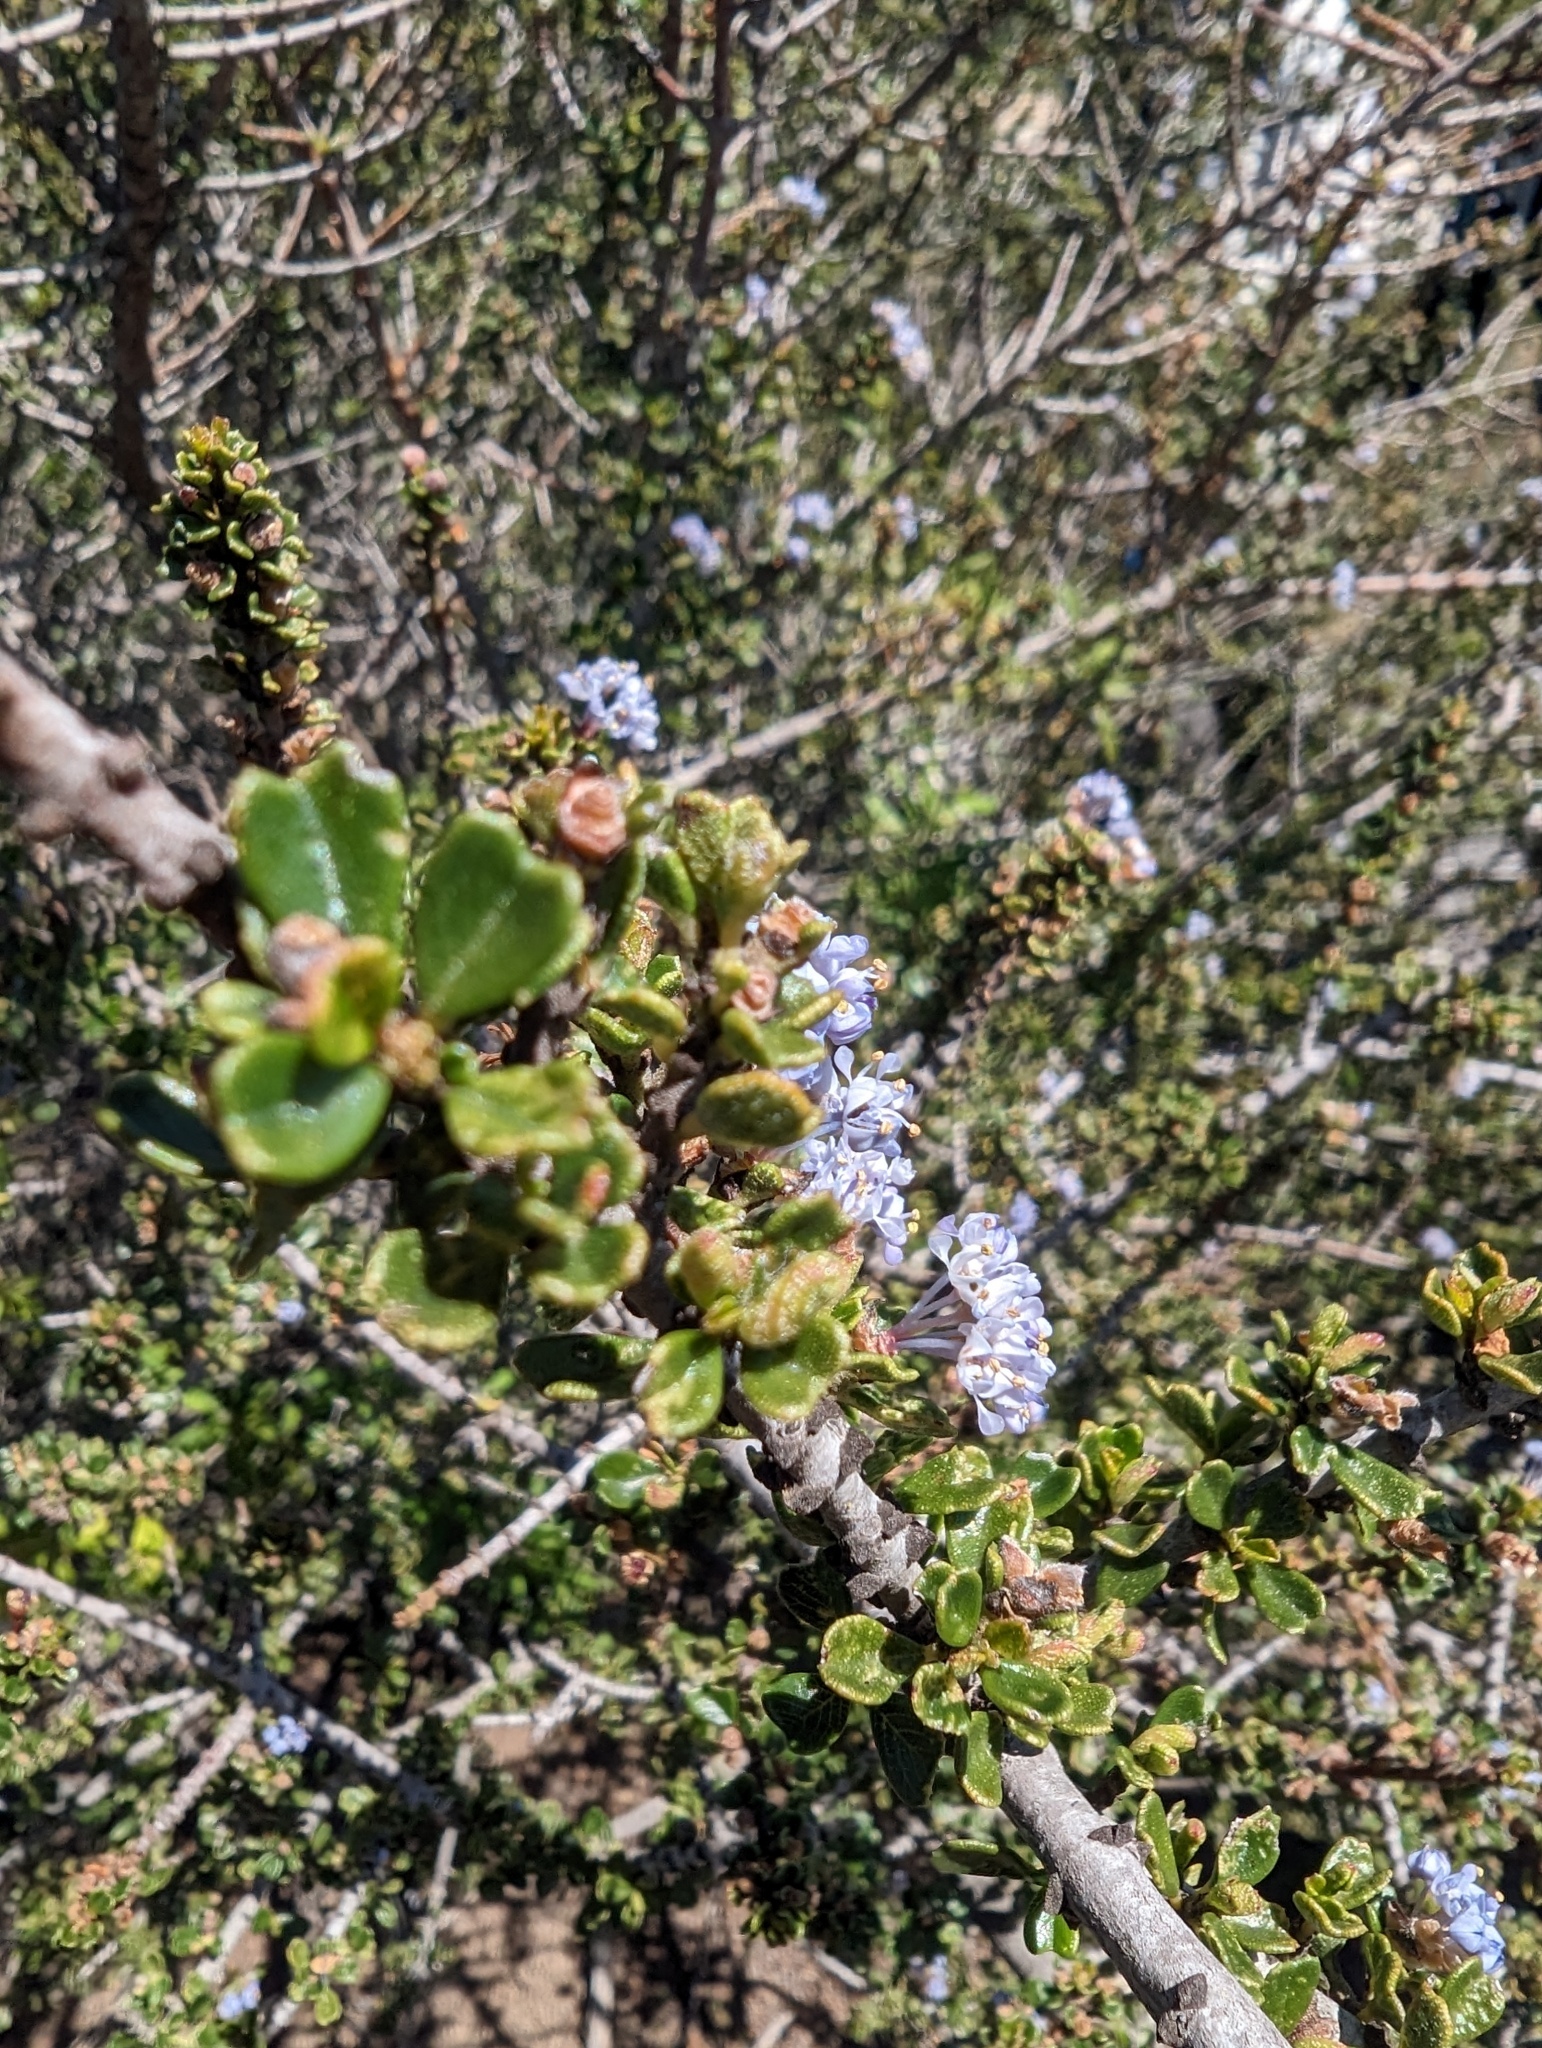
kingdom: Plantae
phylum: Tracheophyta
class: Magnoliopsida
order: Rosales
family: Rhamnaceae
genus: Ceanothus
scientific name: Ceanothus cuneatus
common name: Cuneate ceanothus
